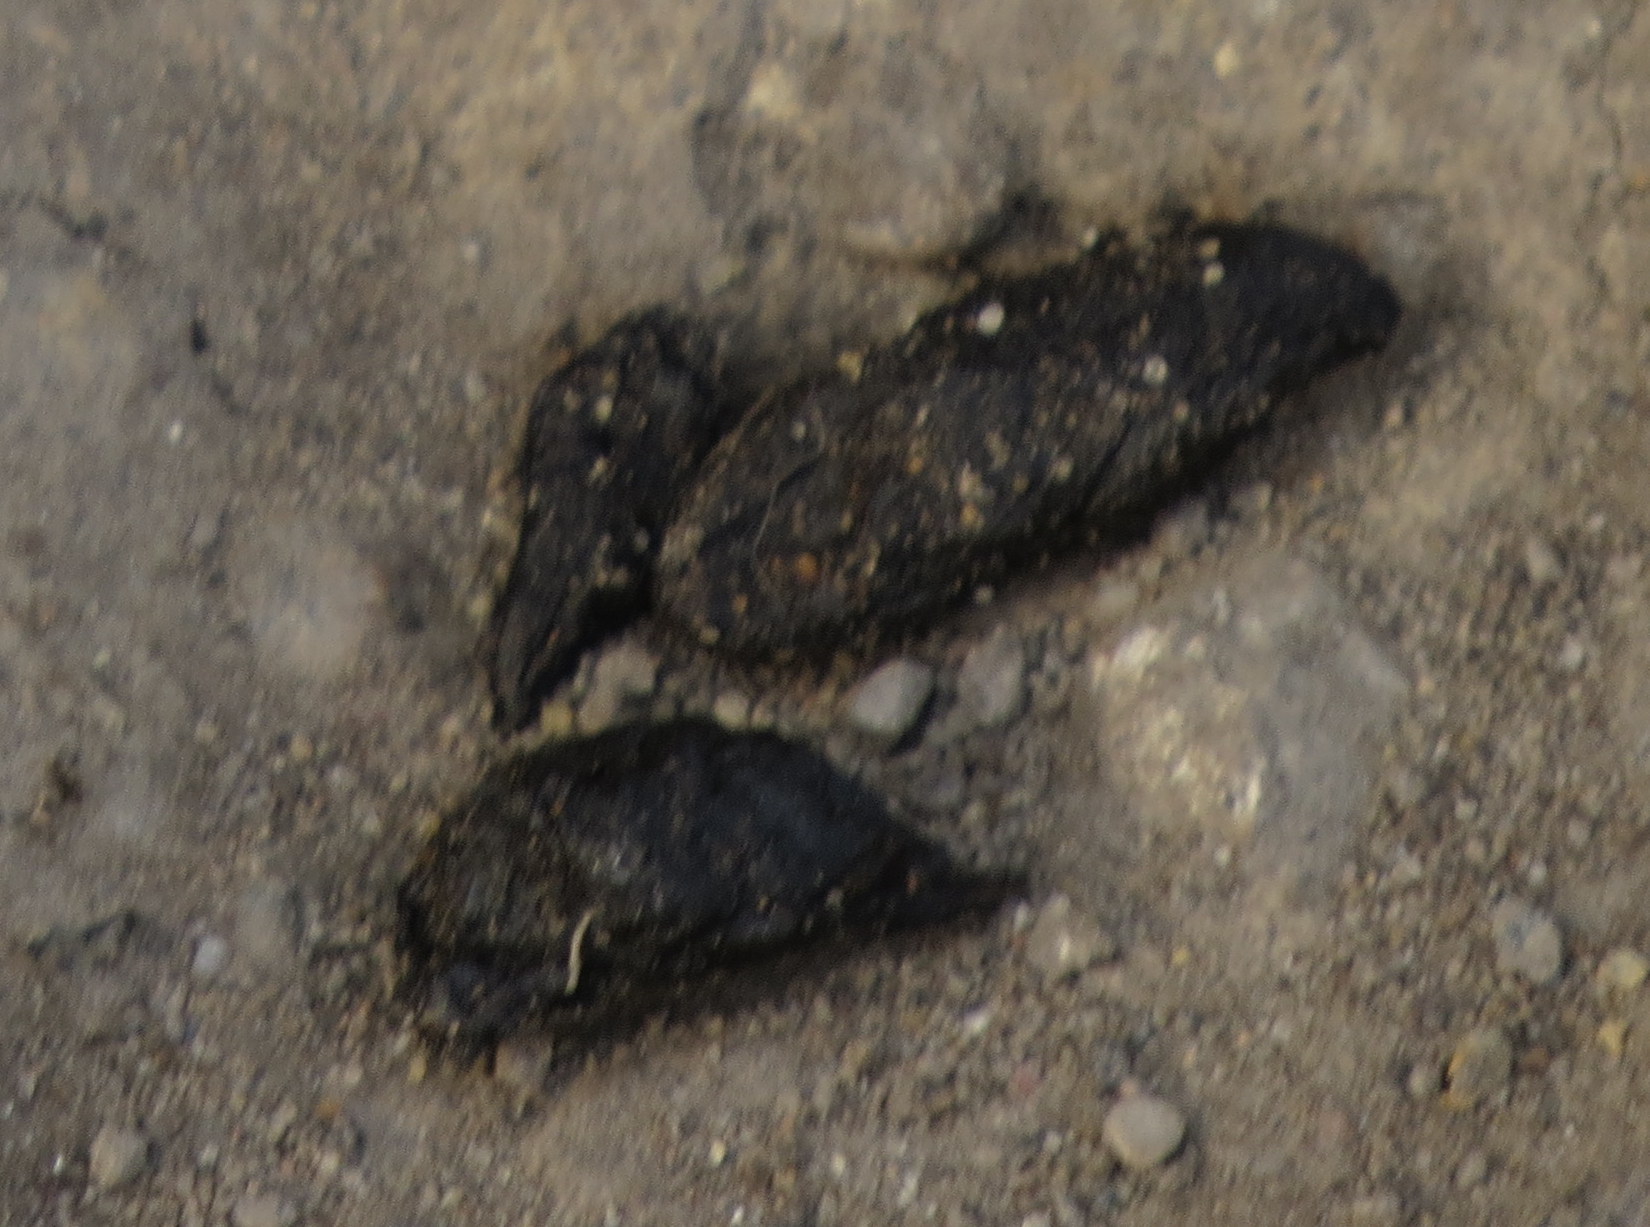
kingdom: Animalia
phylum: Chordata
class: Mammalia
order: Rodentia
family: Muridae
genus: Rattus
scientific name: Rattus norvegicus
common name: Brown rat
